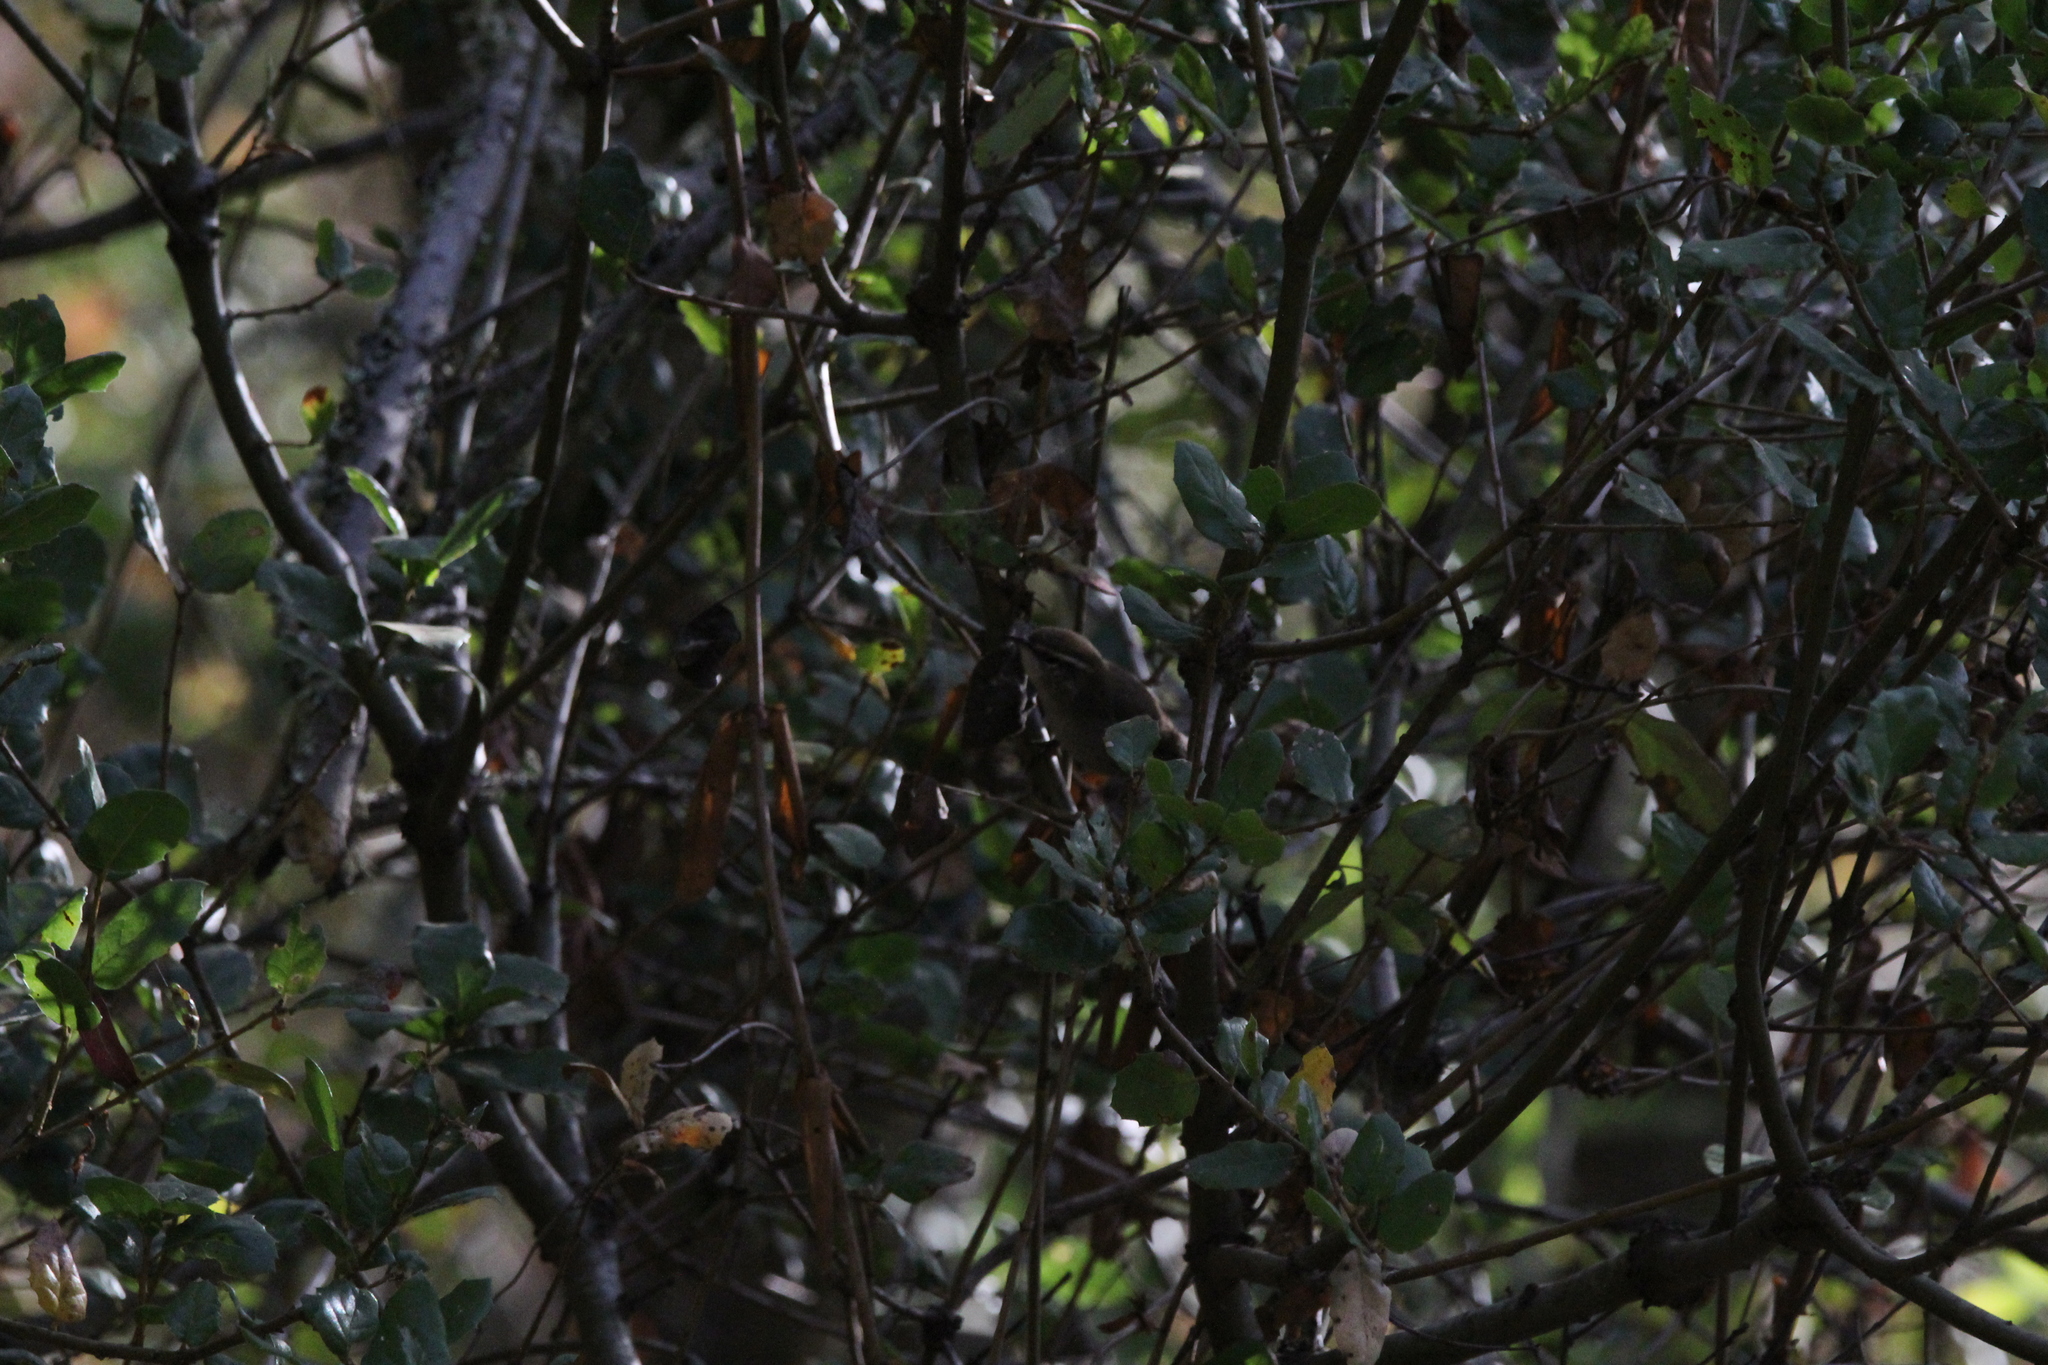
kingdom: Animalia
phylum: Chordata
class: Aves
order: Passeriformes
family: Troglodytidae
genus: Thryomanes
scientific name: Thryomanes bewickii
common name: Bewick's wren
